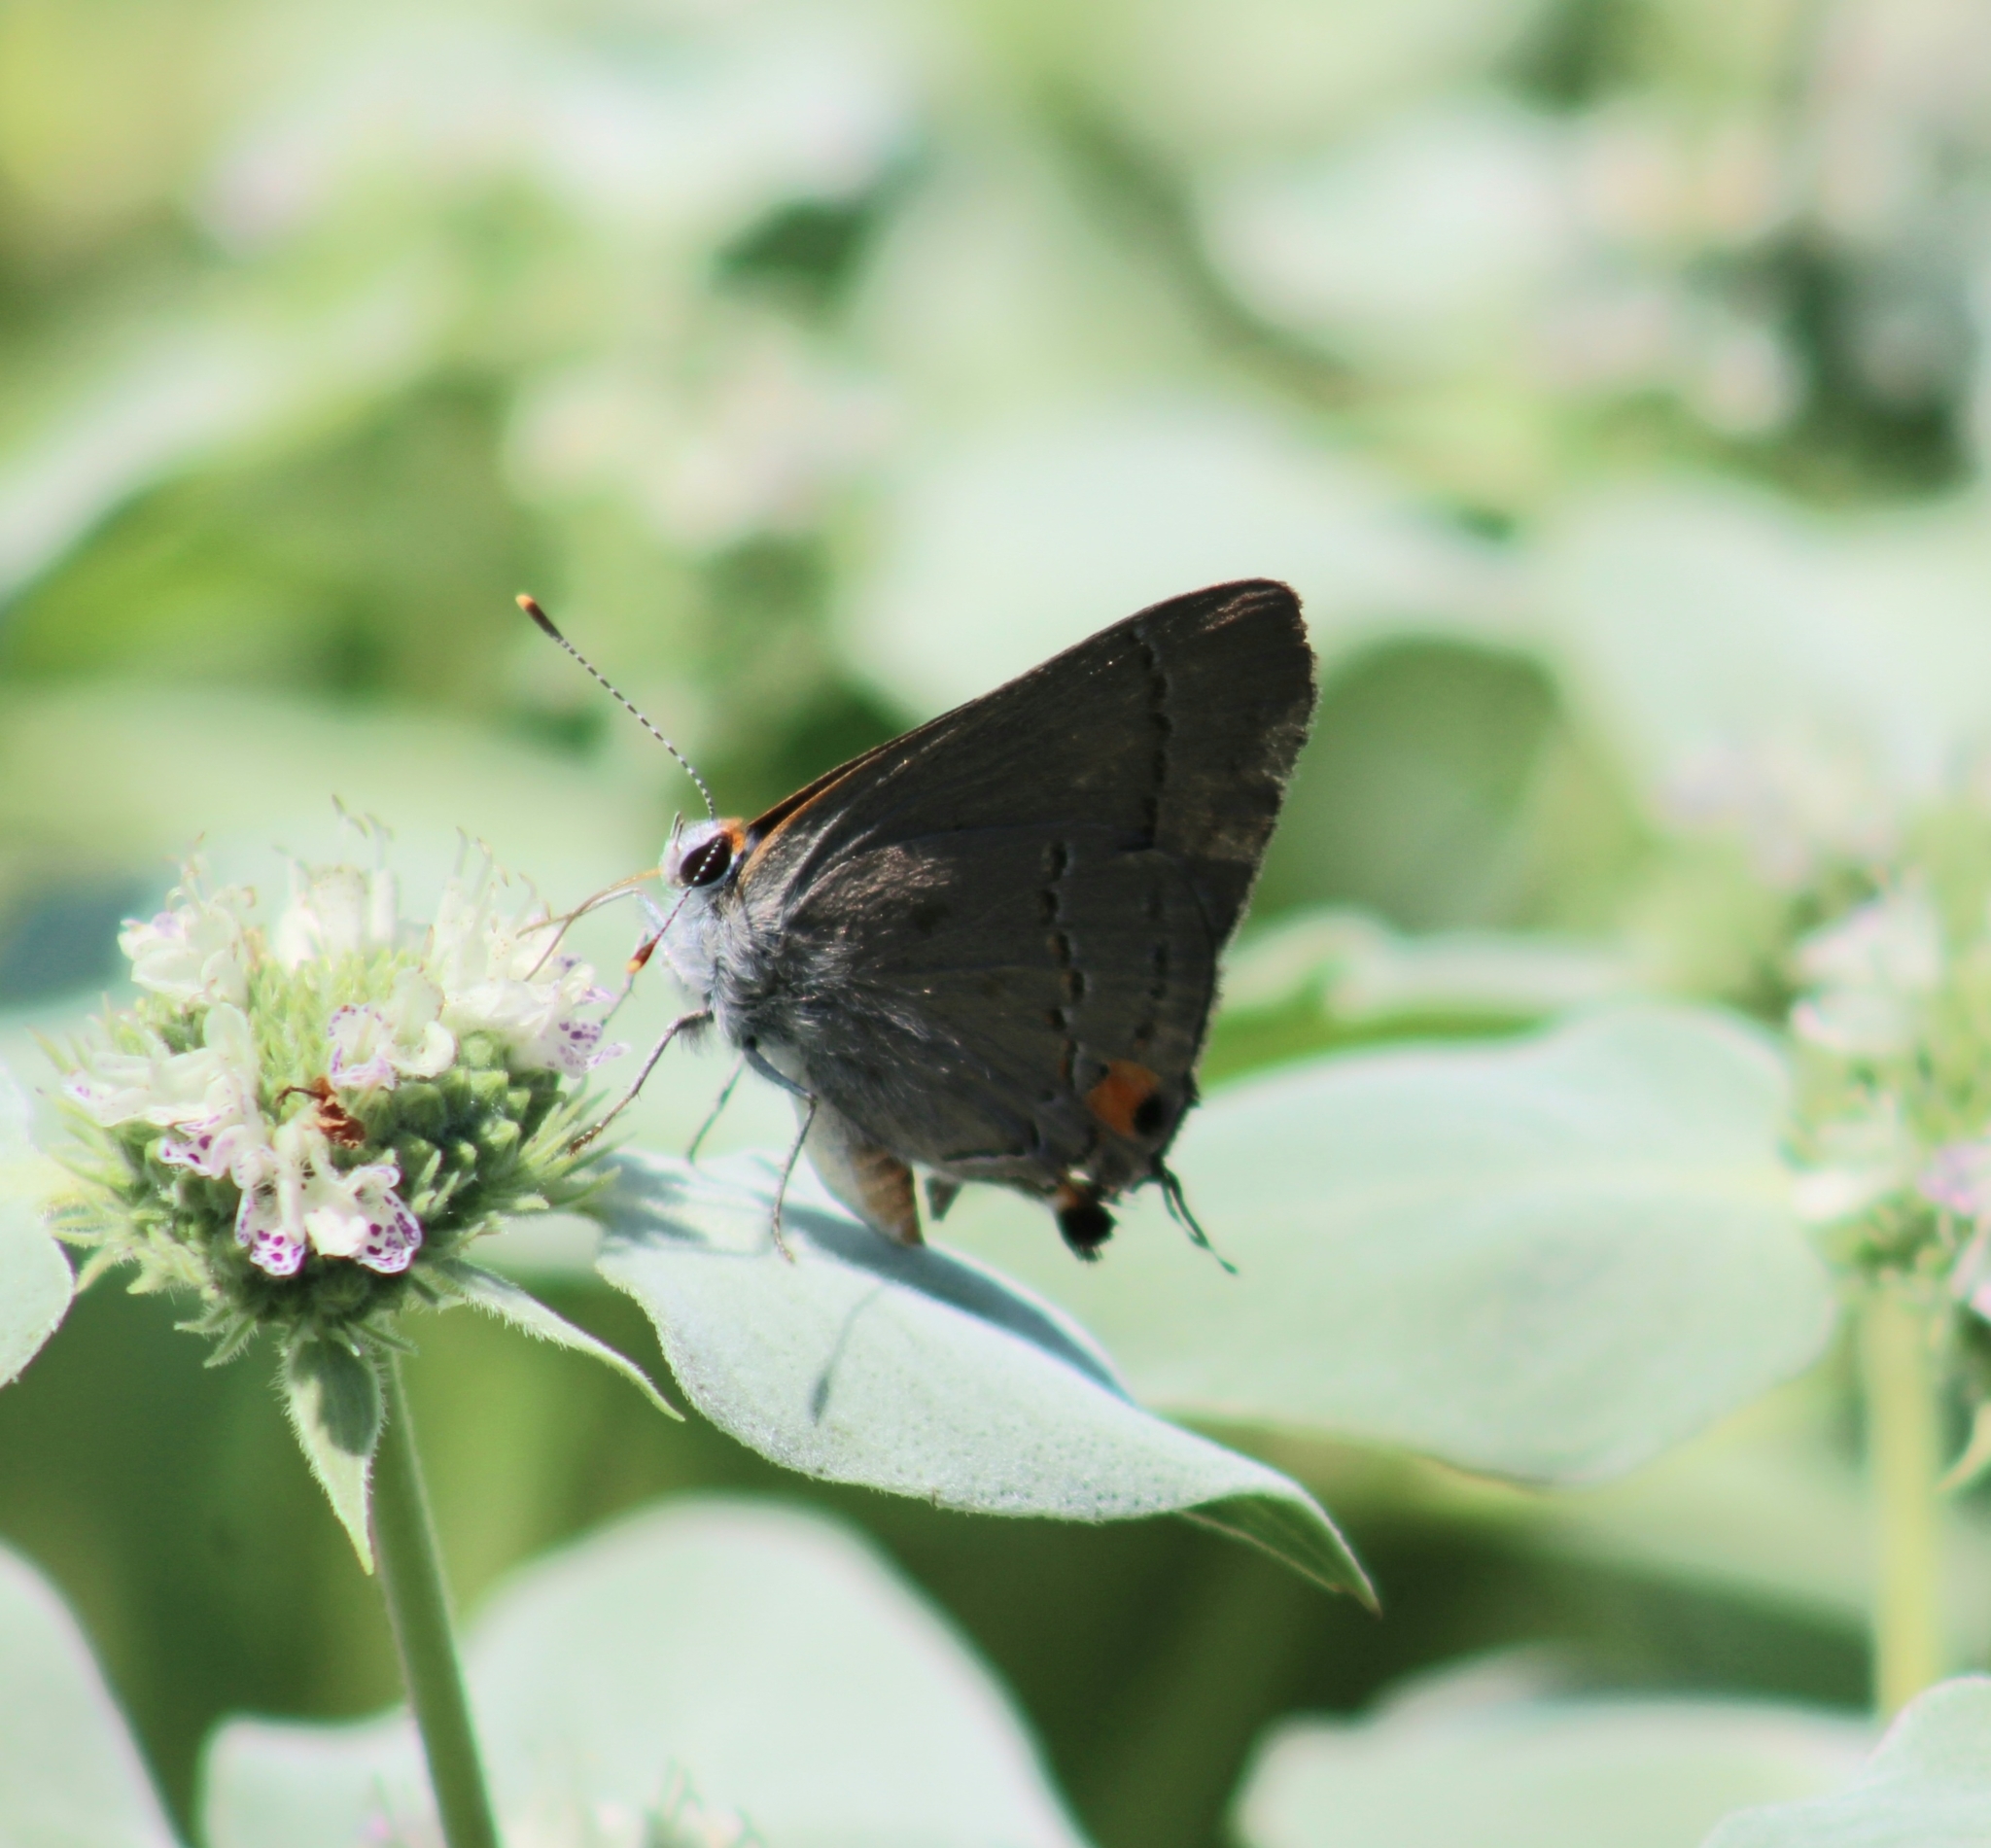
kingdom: Animalia
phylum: Arthropoda
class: Insecta
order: Lepidoptera
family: Lycaenidae
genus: Strymon
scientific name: Strymon melinus
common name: Gray hairstreak
